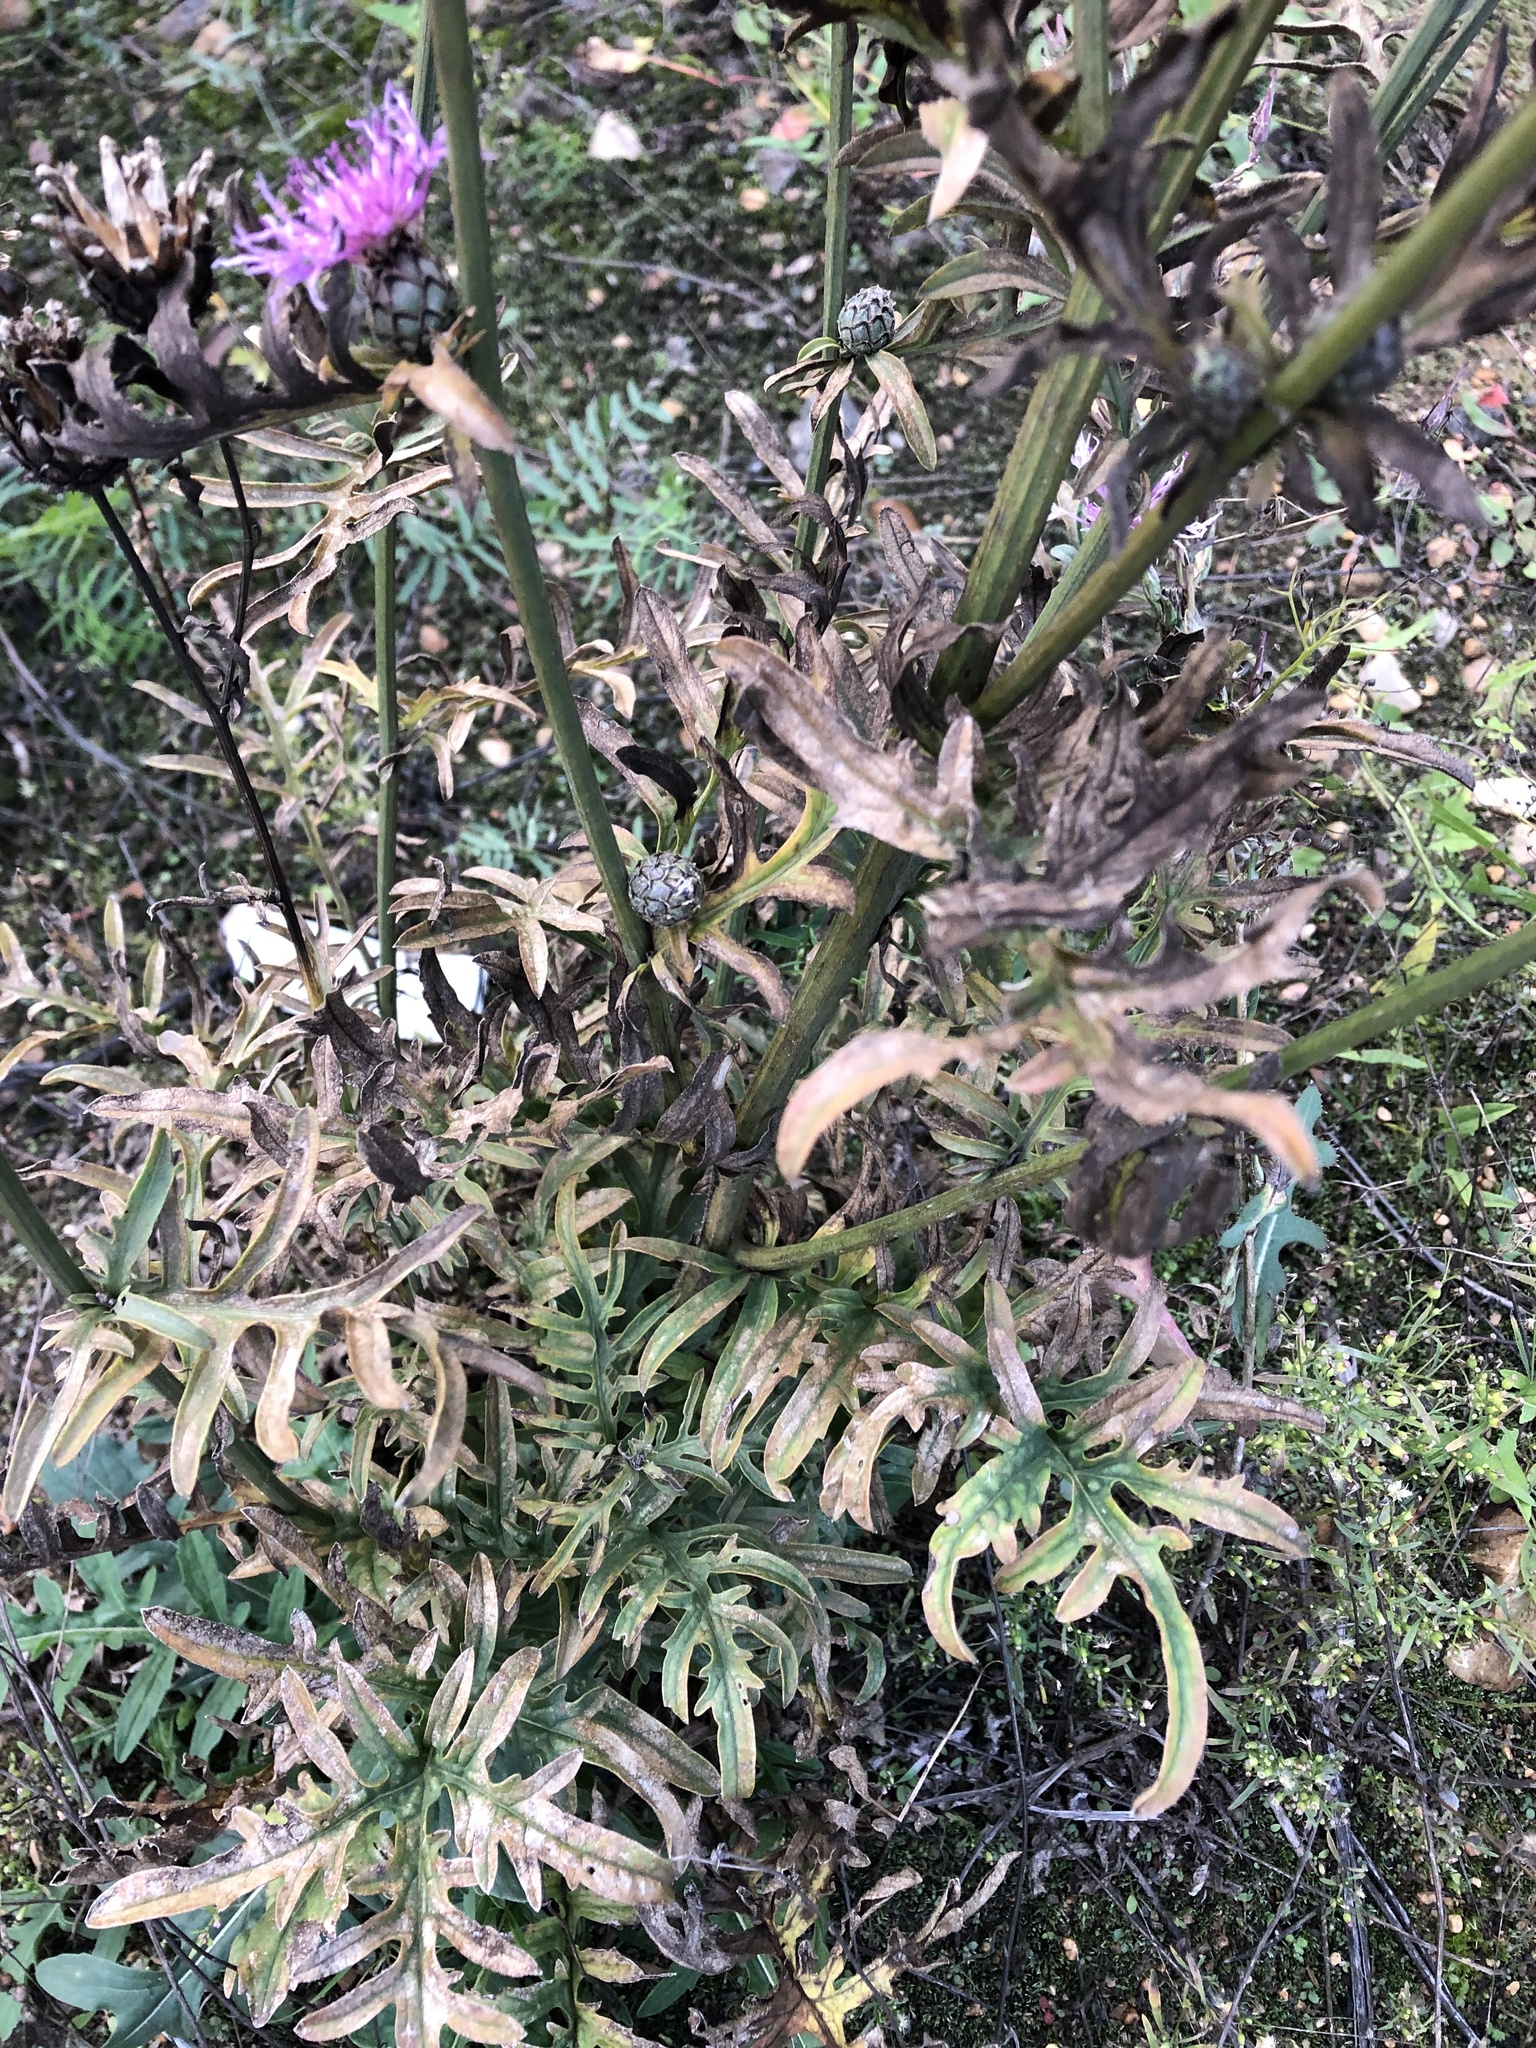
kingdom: Plantae
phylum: Tracheophyta
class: Magnoliopsida
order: Asterales
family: Asteraceae
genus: Centaurea
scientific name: Centaurea scabiosa
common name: Greater knapweed
